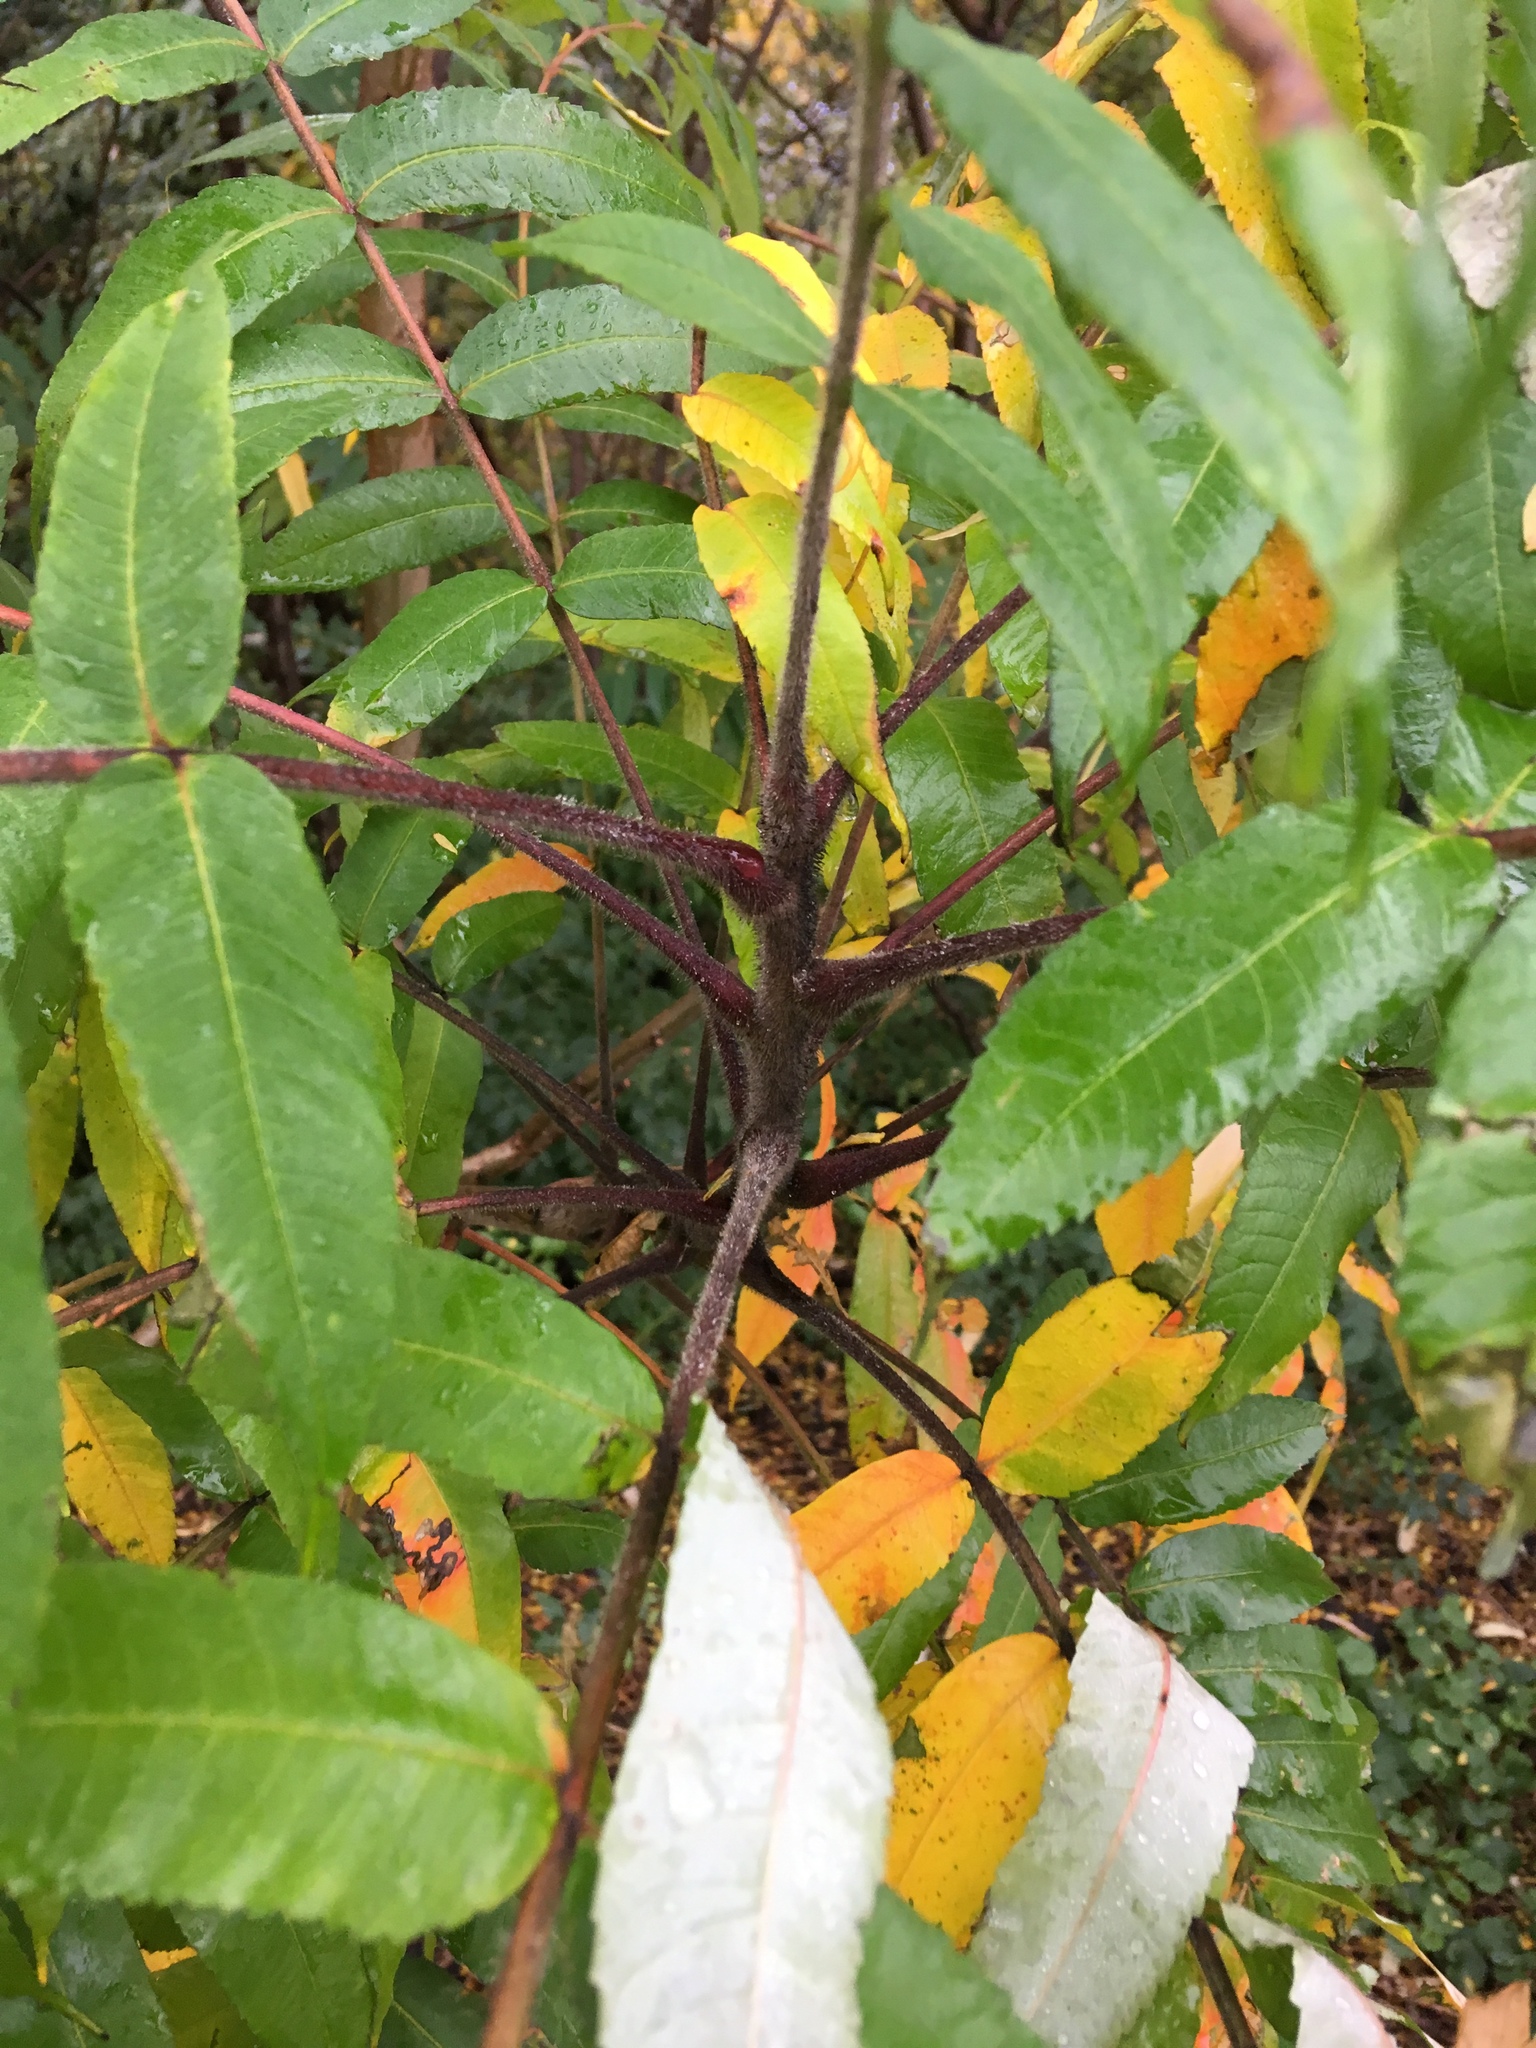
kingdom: Plantae
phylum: Tracheophyta
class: Magnoliopsida
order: Sapindales
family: Anacardiaceae
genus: Rhus
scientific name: Rhus typhina
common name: Staghorn sumac
